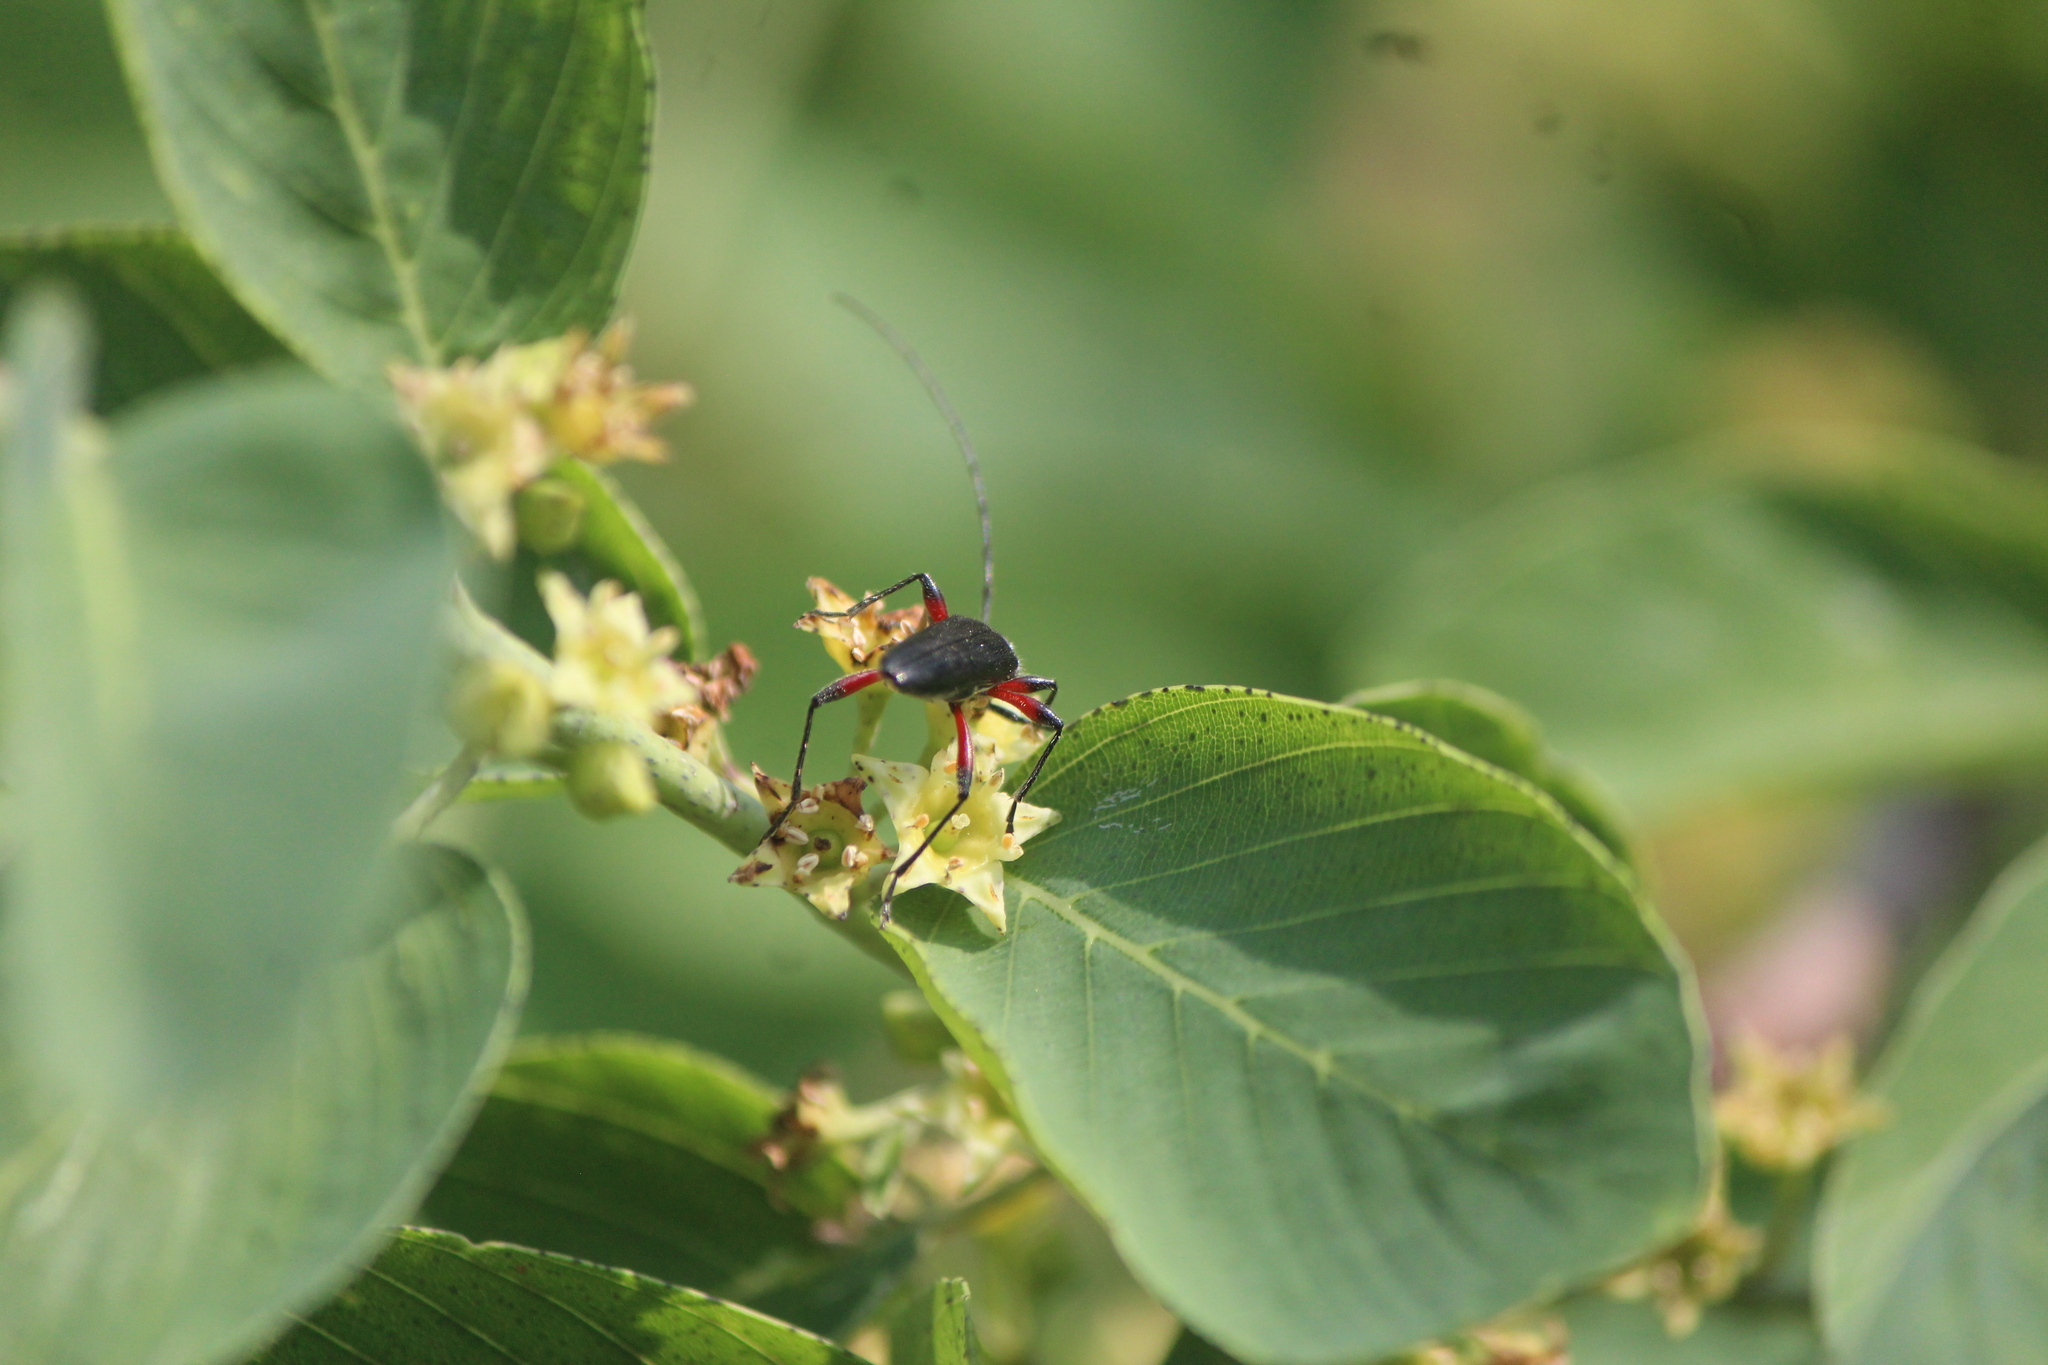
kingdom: Animalia
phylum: Arthropoda
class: Insecta
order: Coleoptera
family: Cerambycidae
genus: Stenosphenus
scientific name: Stenosphenus sobrius
